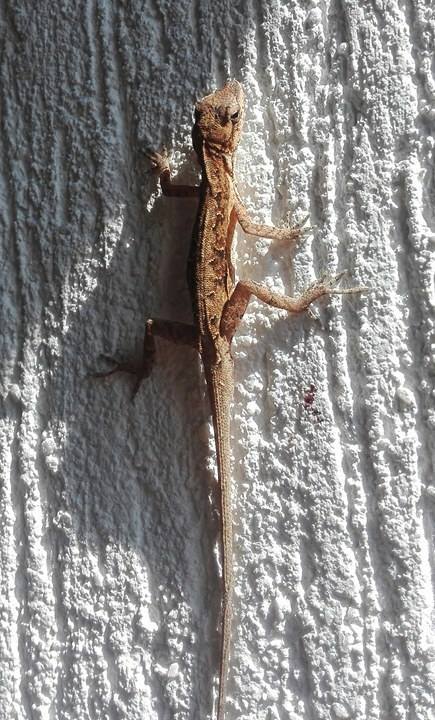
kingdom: Animalia
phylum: Chordata
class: Squamata
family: Dactyloidae
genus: Anolis
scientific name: Anolis nebulosus
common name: Clouded anole
